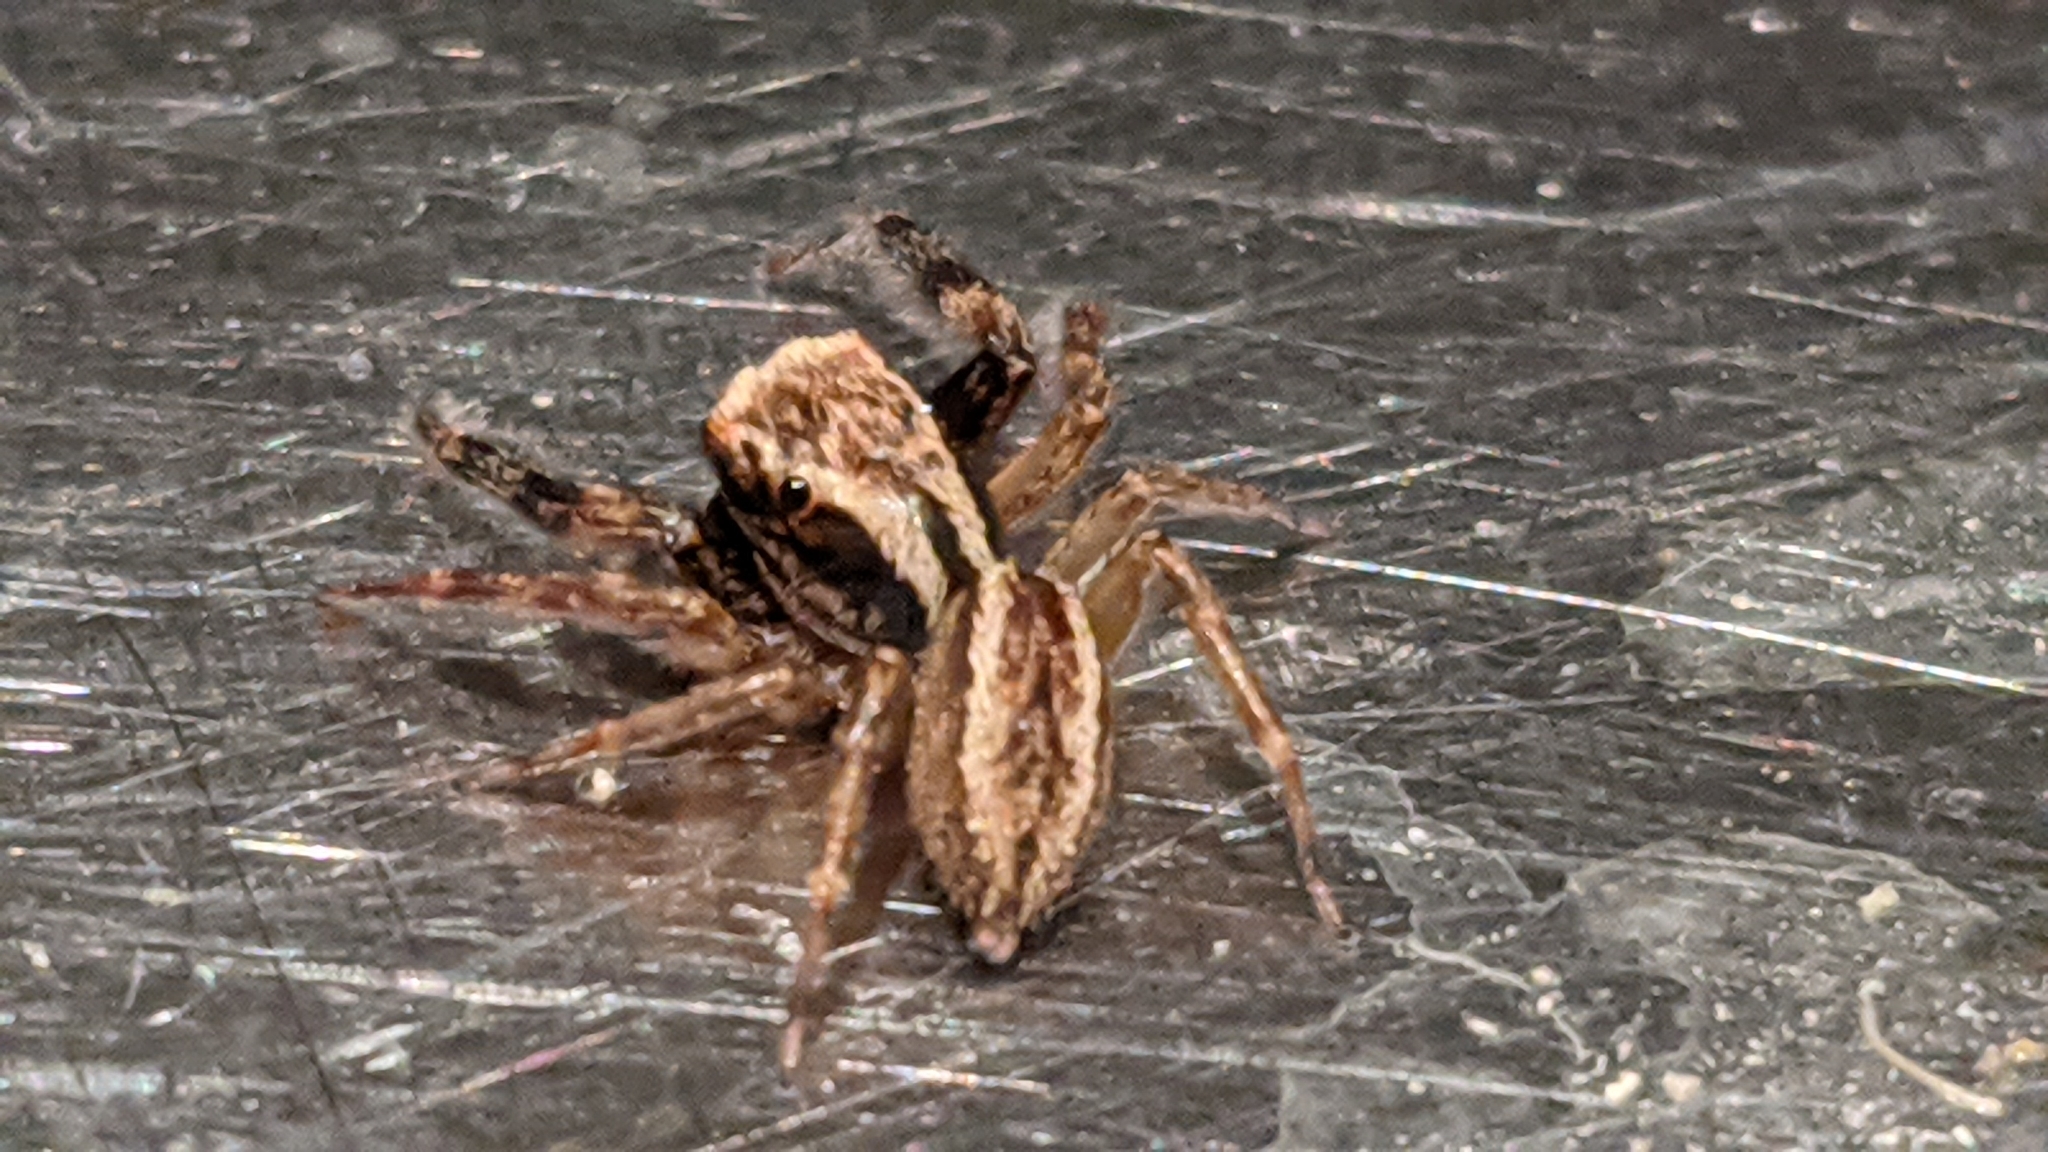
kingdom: Animalia
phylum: Arthropoda
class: Arachnida
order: Araneae
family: Salticidae
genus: Trite
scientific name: Trite auricoma
